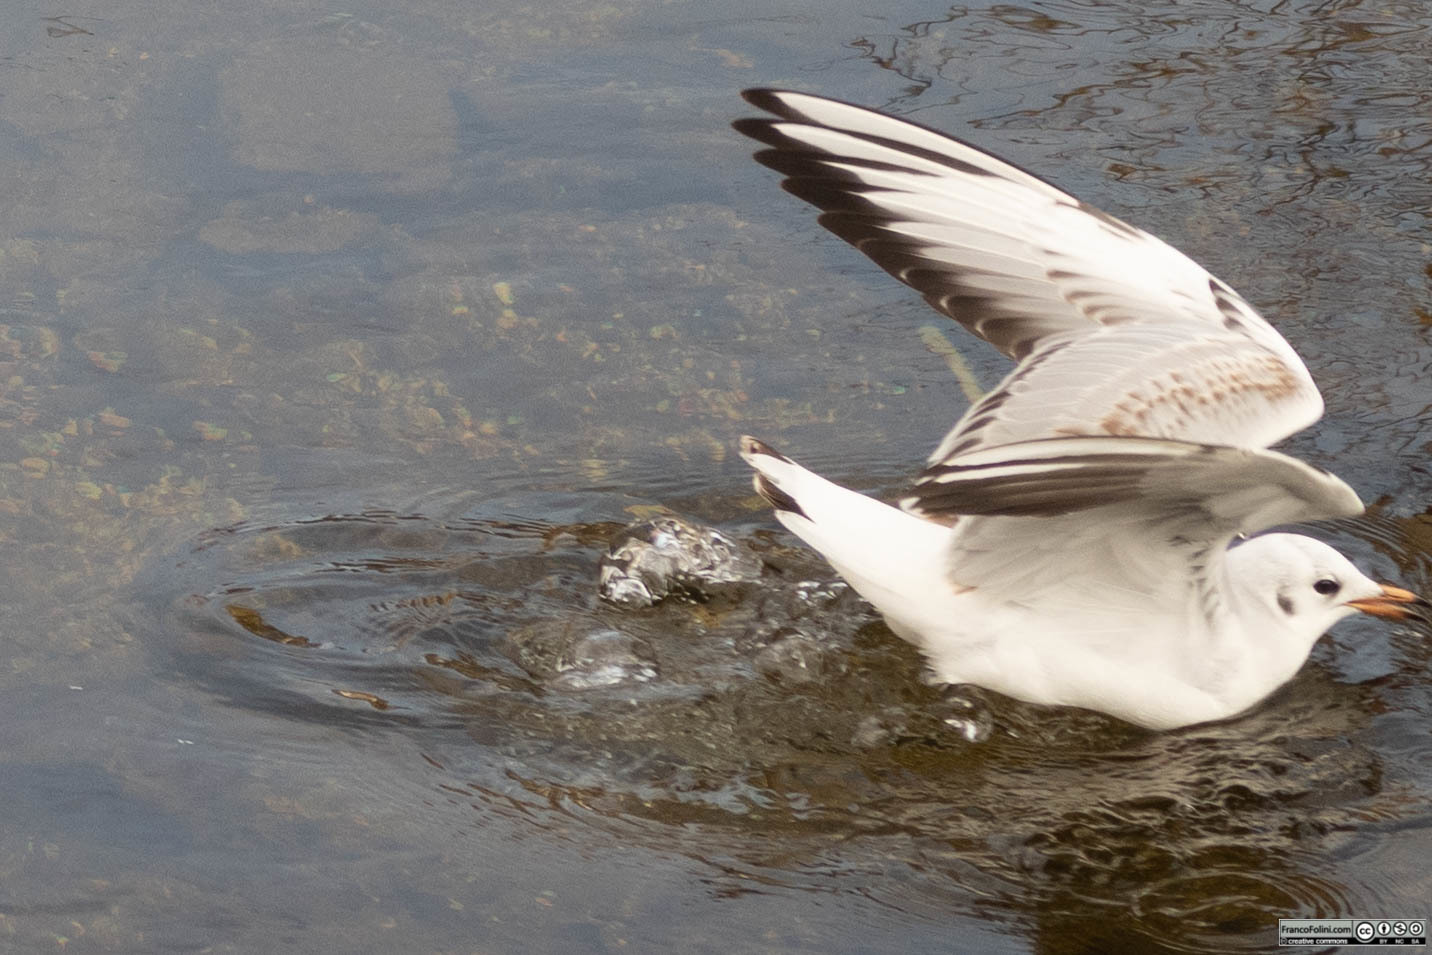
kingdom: Animalia
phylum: Chordata
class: Aves
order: Charadriiformes
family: Laridae
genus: Chroicocephalus
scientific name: Chroicocephalus ridibundus
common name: Black-headed gull
